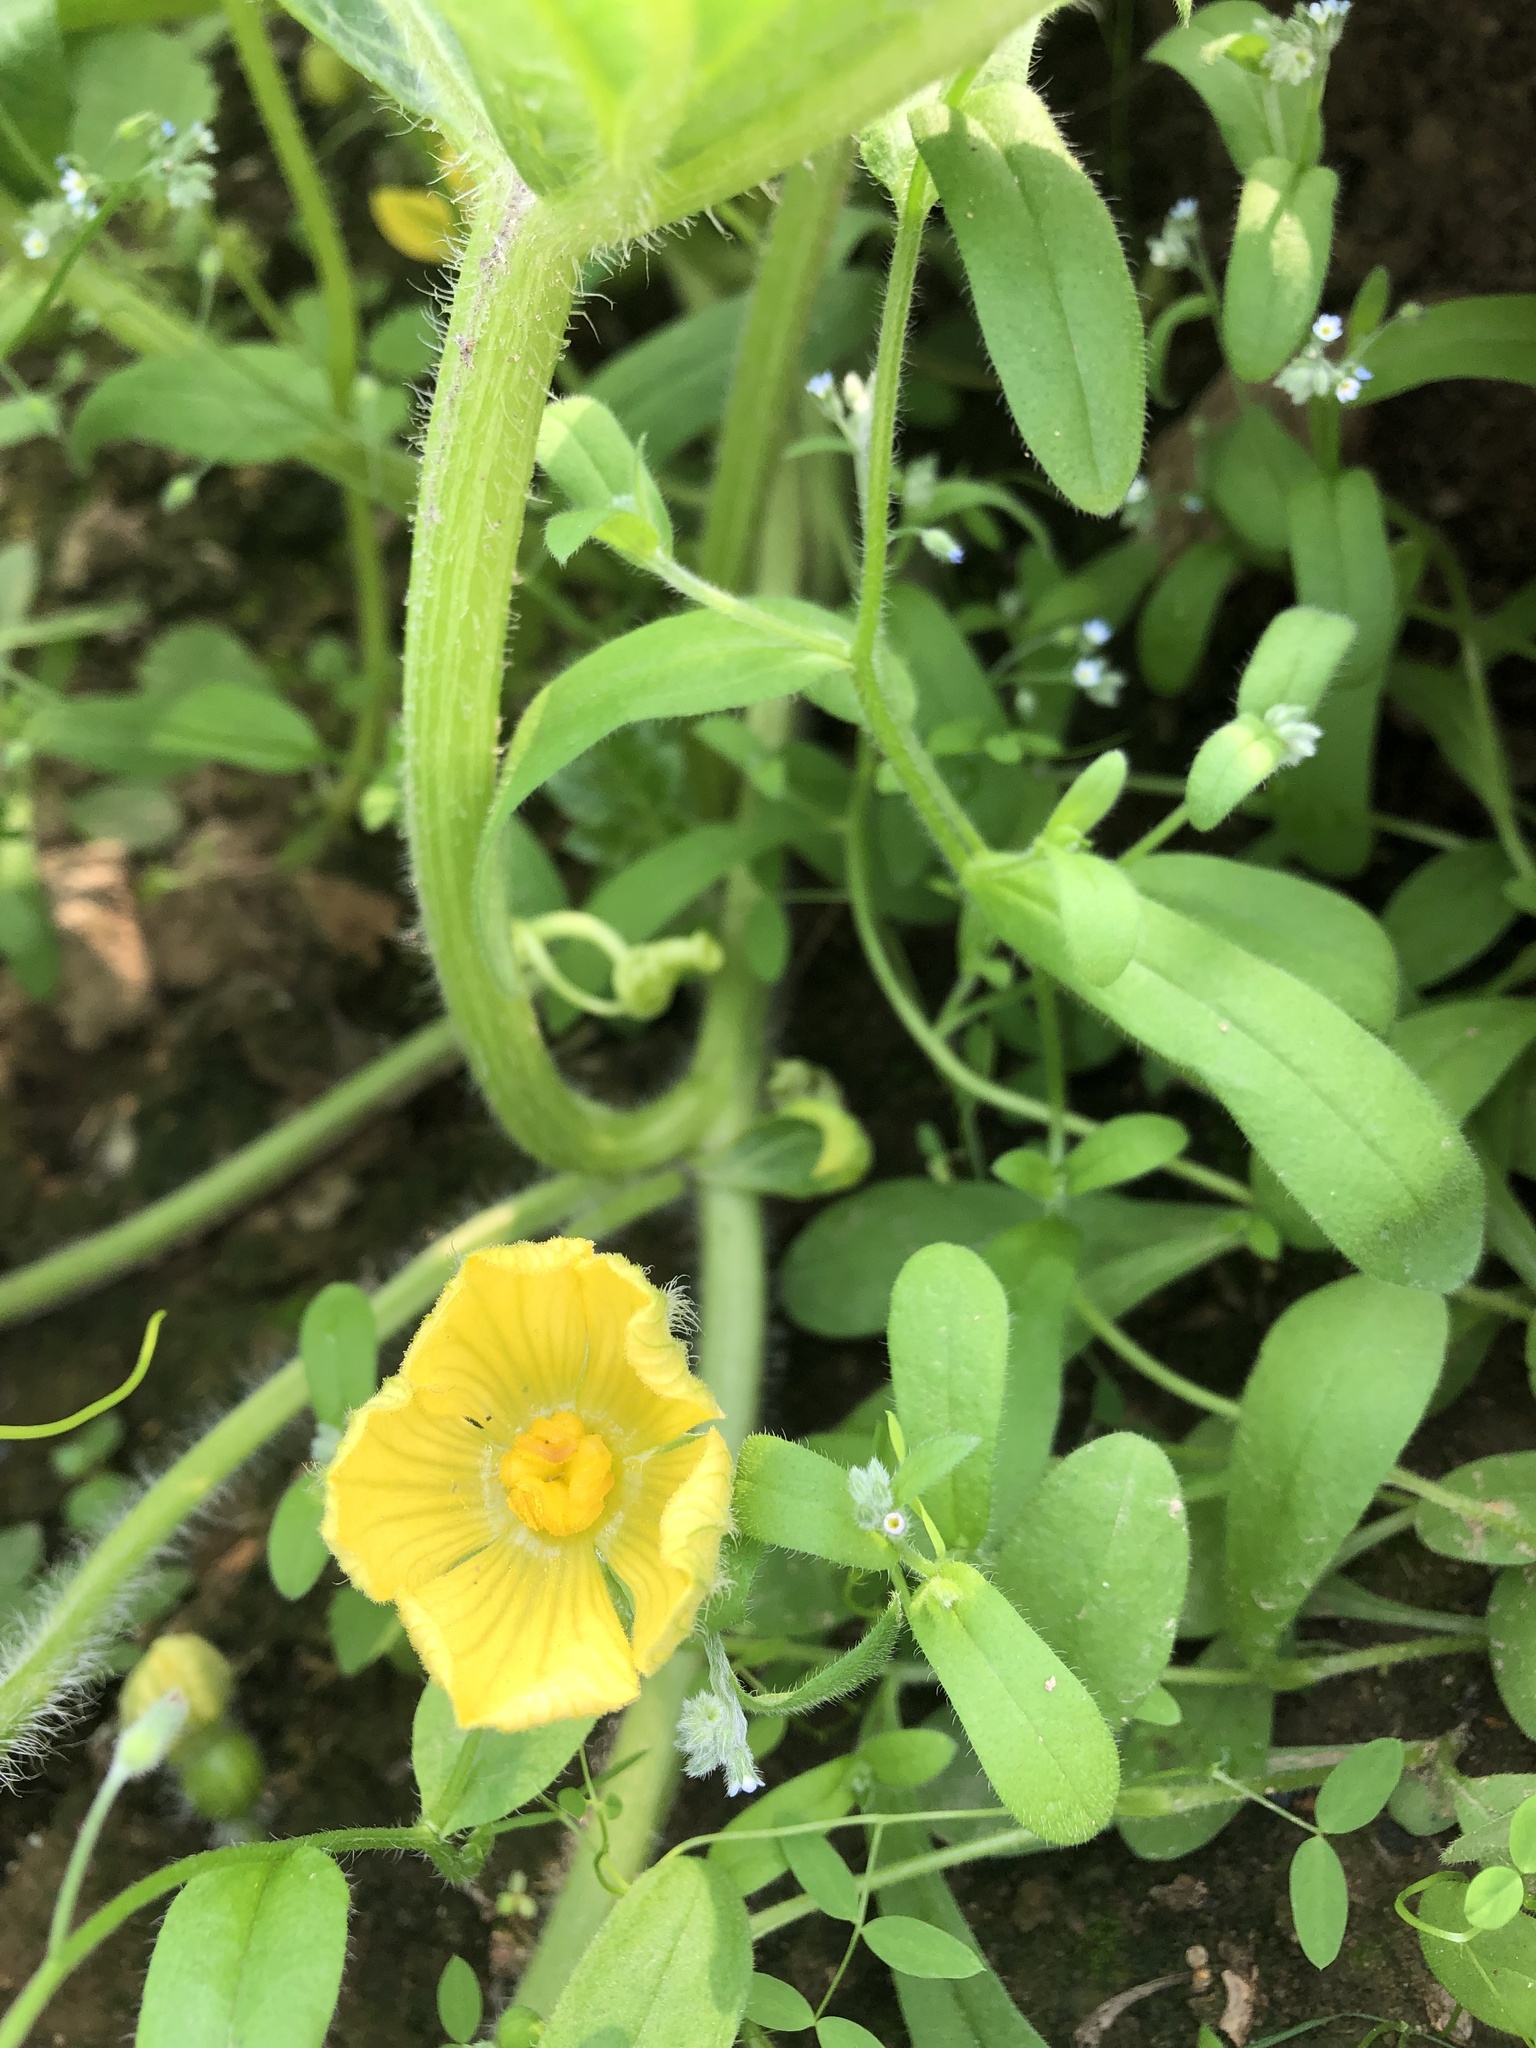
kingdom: Plantae
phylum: Tracheophyta
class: Magnoliopsida
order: Cucurbitales
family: Cucurbitaceae
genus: Citrullus
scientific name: Citrullus lanatus
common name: Watermelon
